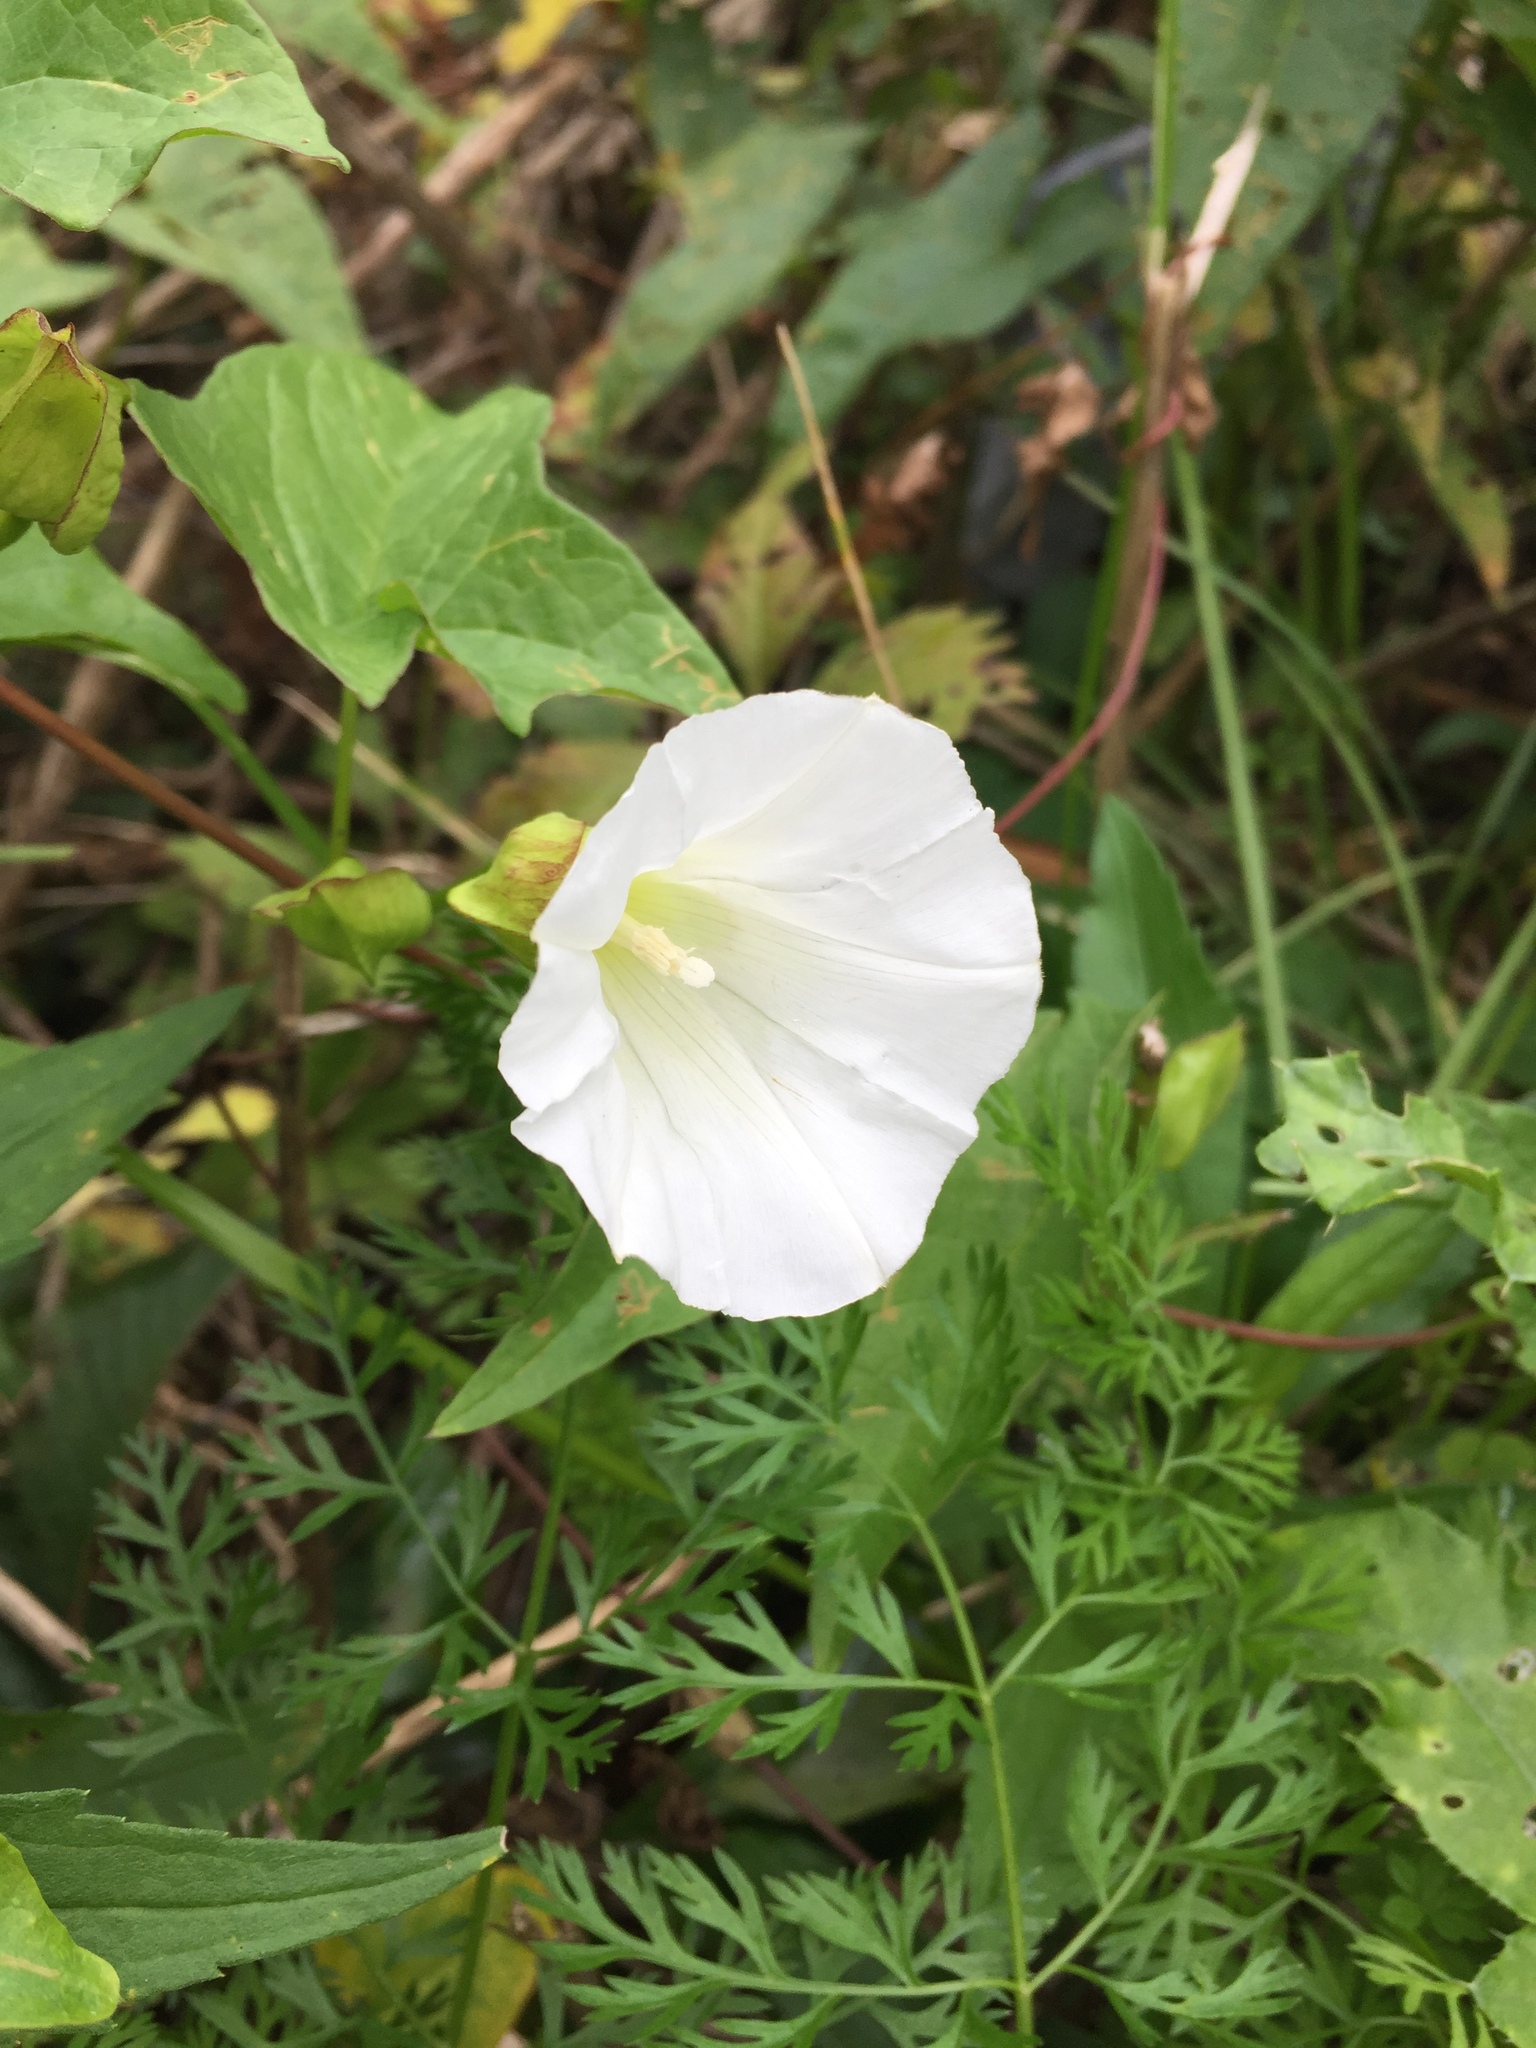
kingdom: Plantae
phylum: Tracheophyta
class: Magnoliopsida
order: Solanales
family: Convolvulaceae
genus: Calystegia
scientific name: Calystegia sepium
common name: Hedge bindweed
